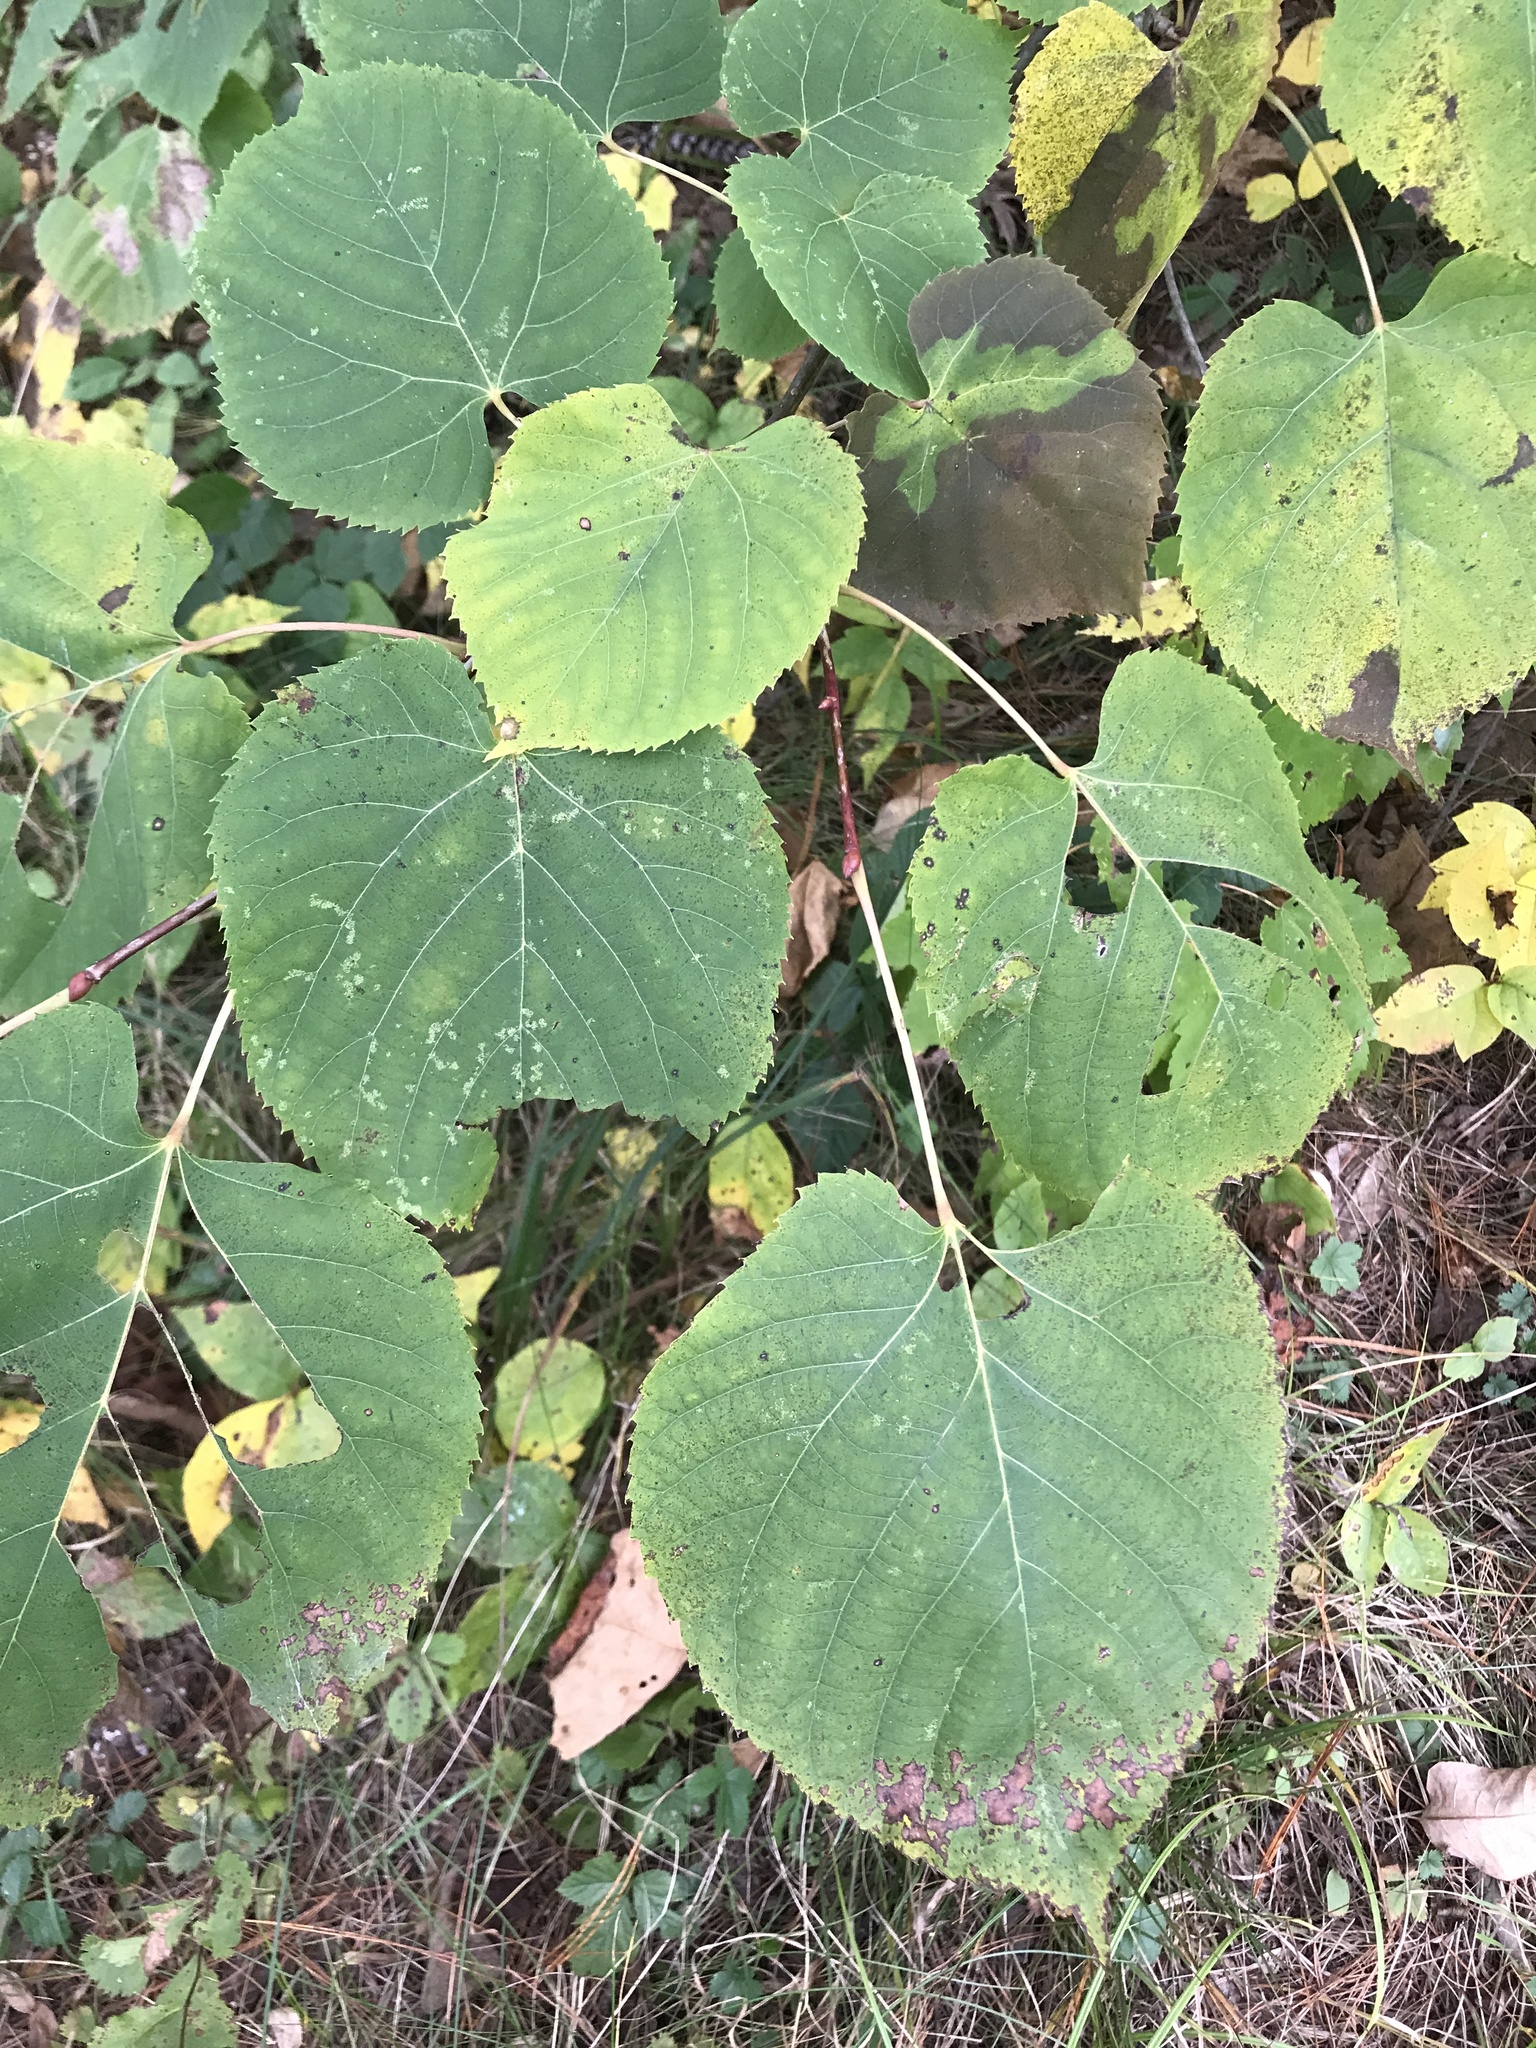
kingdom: Plantae
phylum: Tracheophyta
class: Magnoliopsida
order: Malvales
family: Malvaceae
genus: Tilia
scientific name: Tilia americana
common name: Basswood
